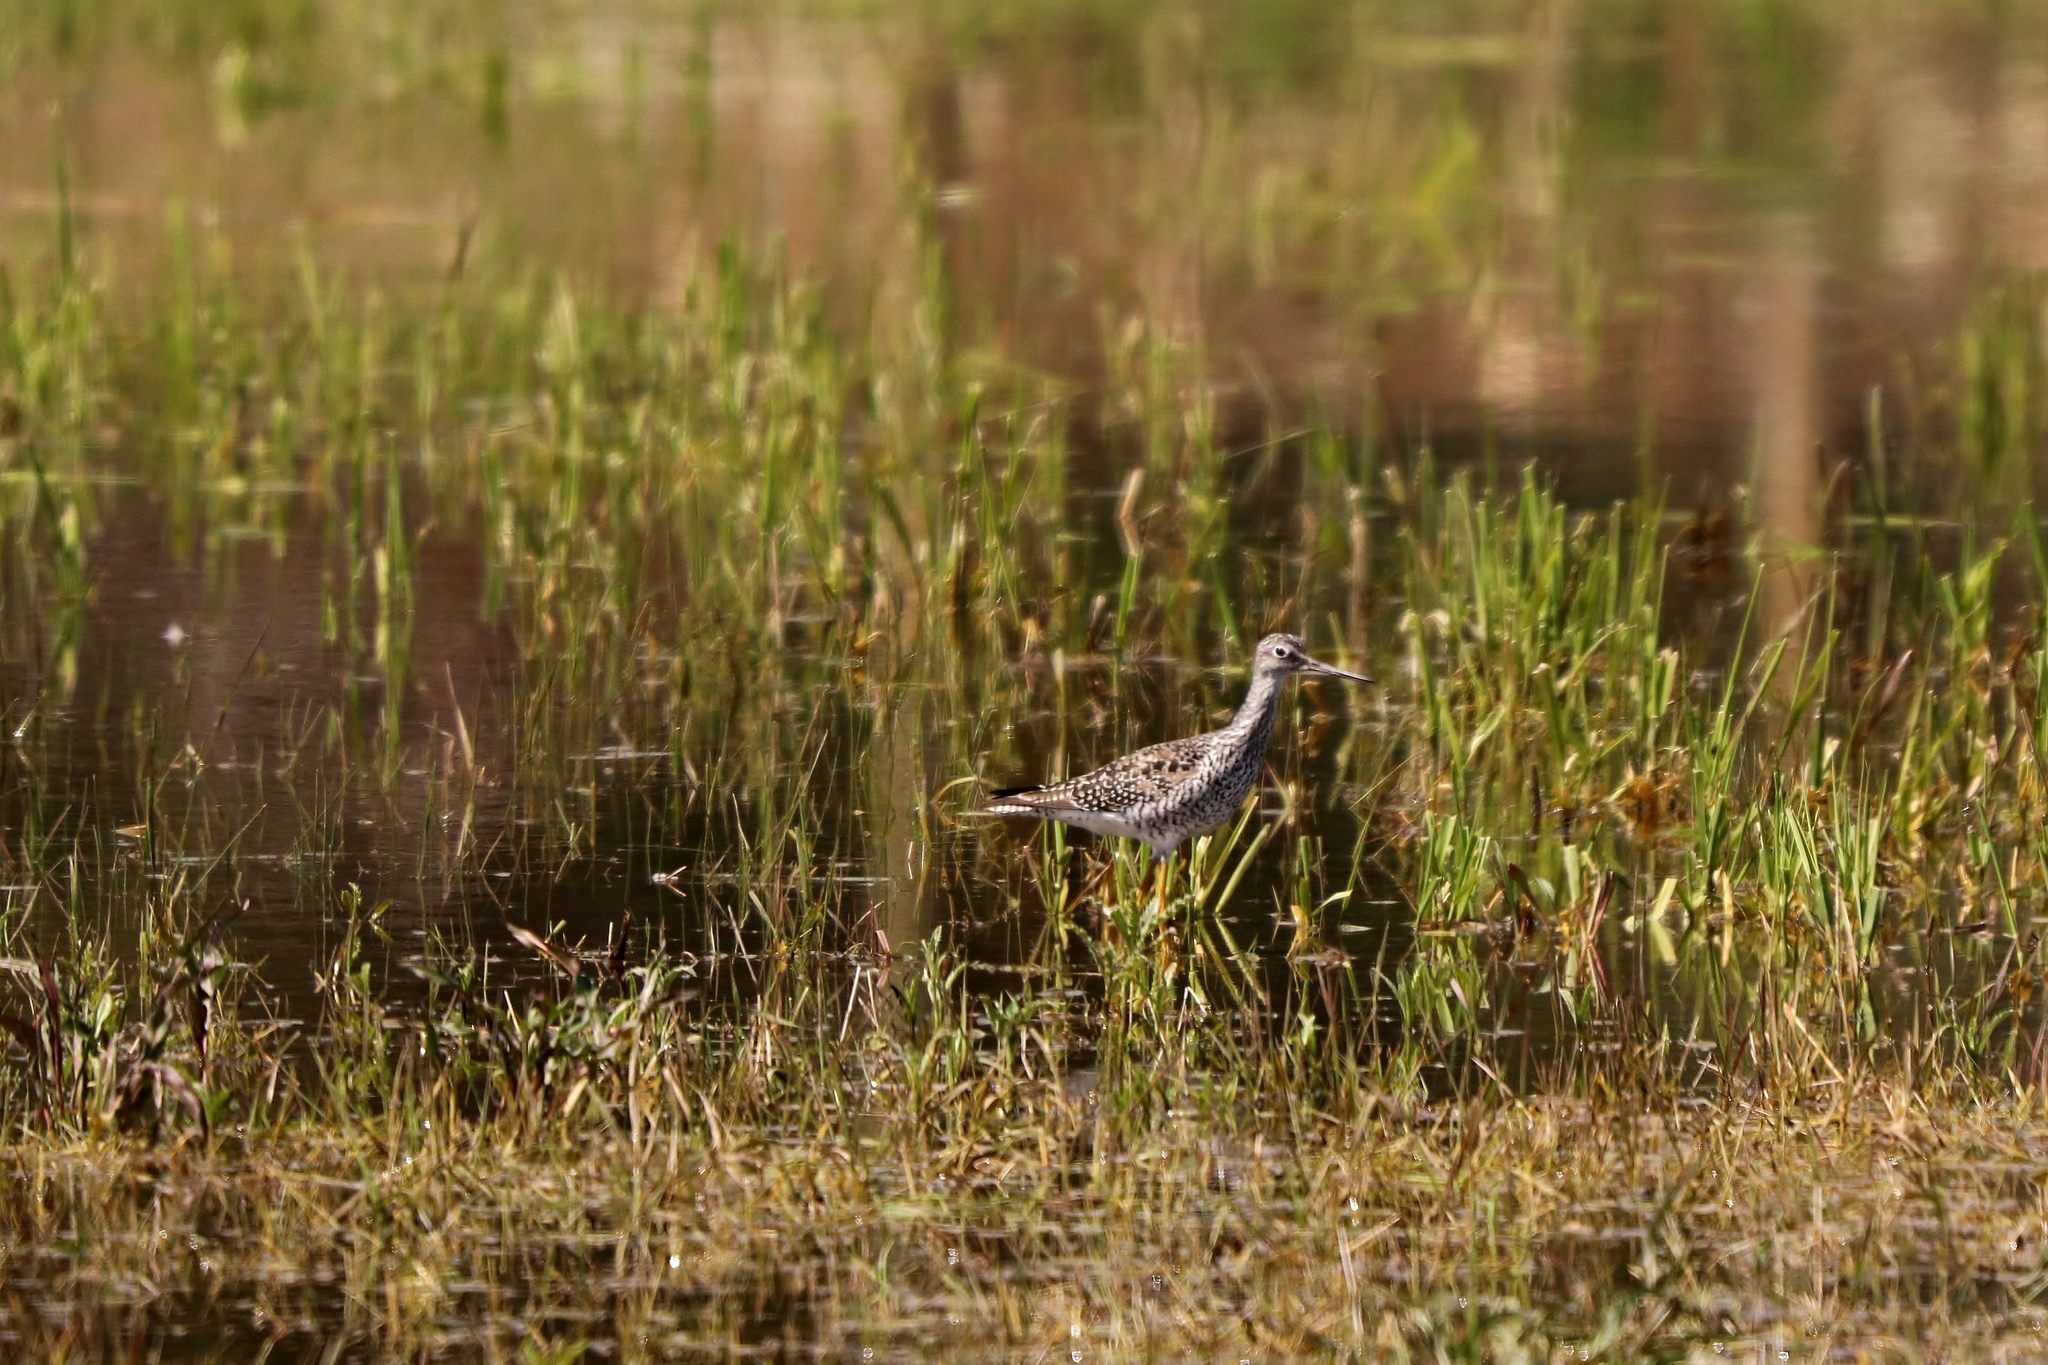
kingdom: Animalia
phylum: Chordata
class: Aves
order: Charadriiformes
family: Scolopacidae
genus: Tringa
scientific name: Tringa melanoleuca
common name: Greater yellowlegs
